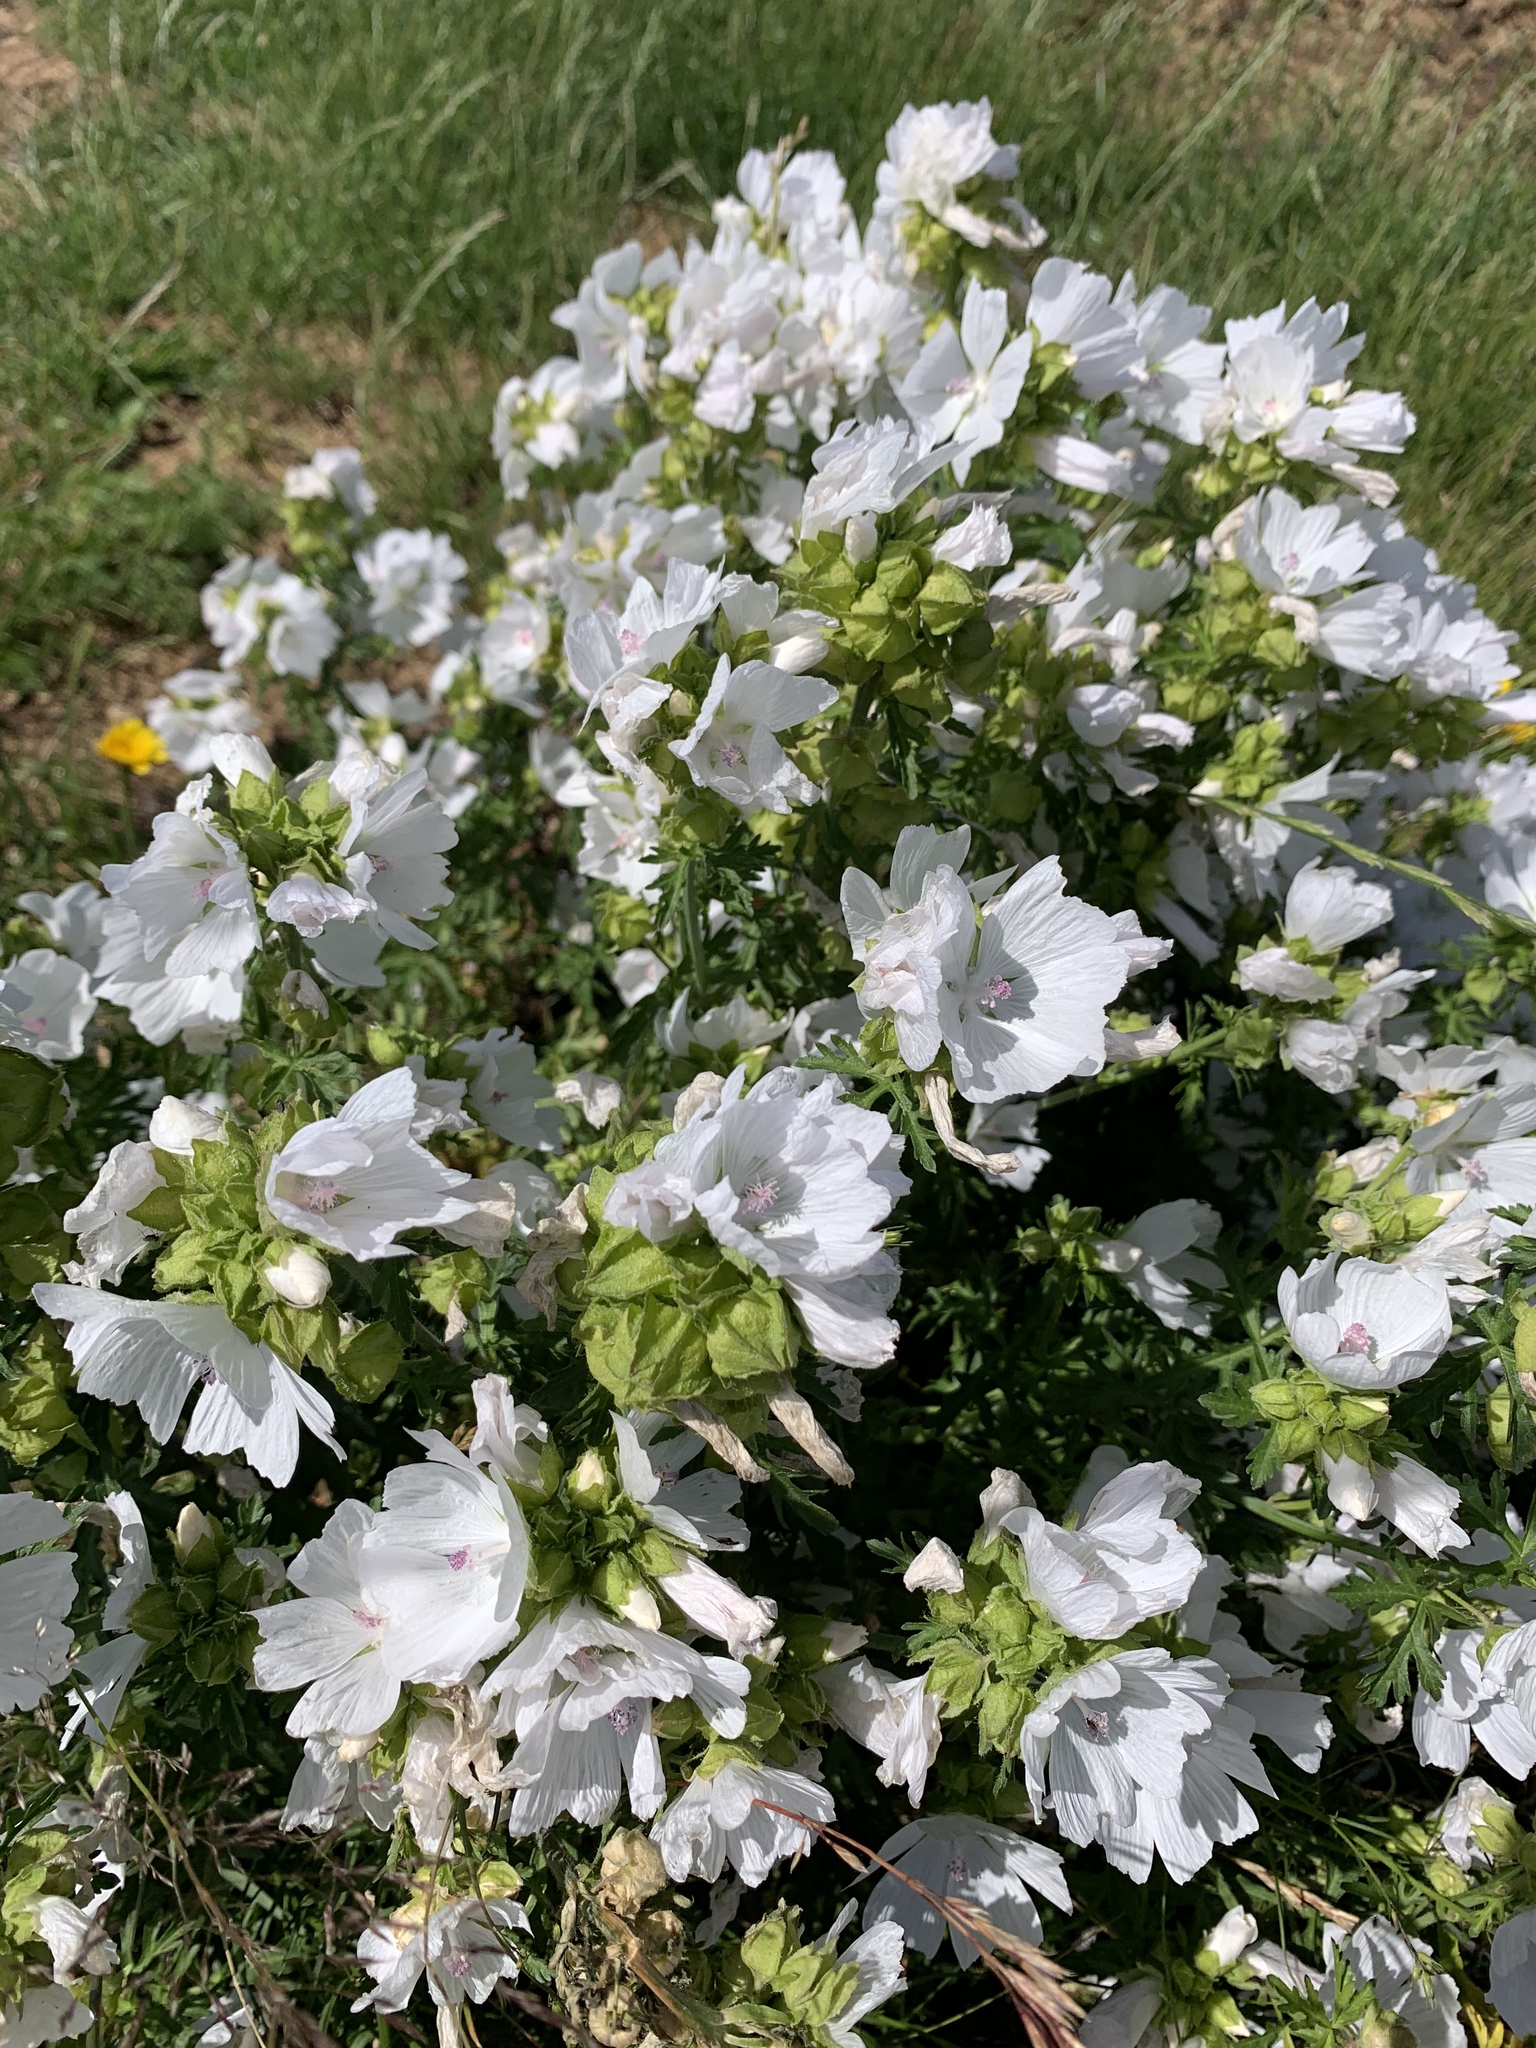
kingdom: Plantae
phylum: Tracheophyta
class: Magnoliopsida
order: Malvales
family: Malvaceae
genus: Malva
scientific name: Malva alcea
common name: Greater musk-mallow
